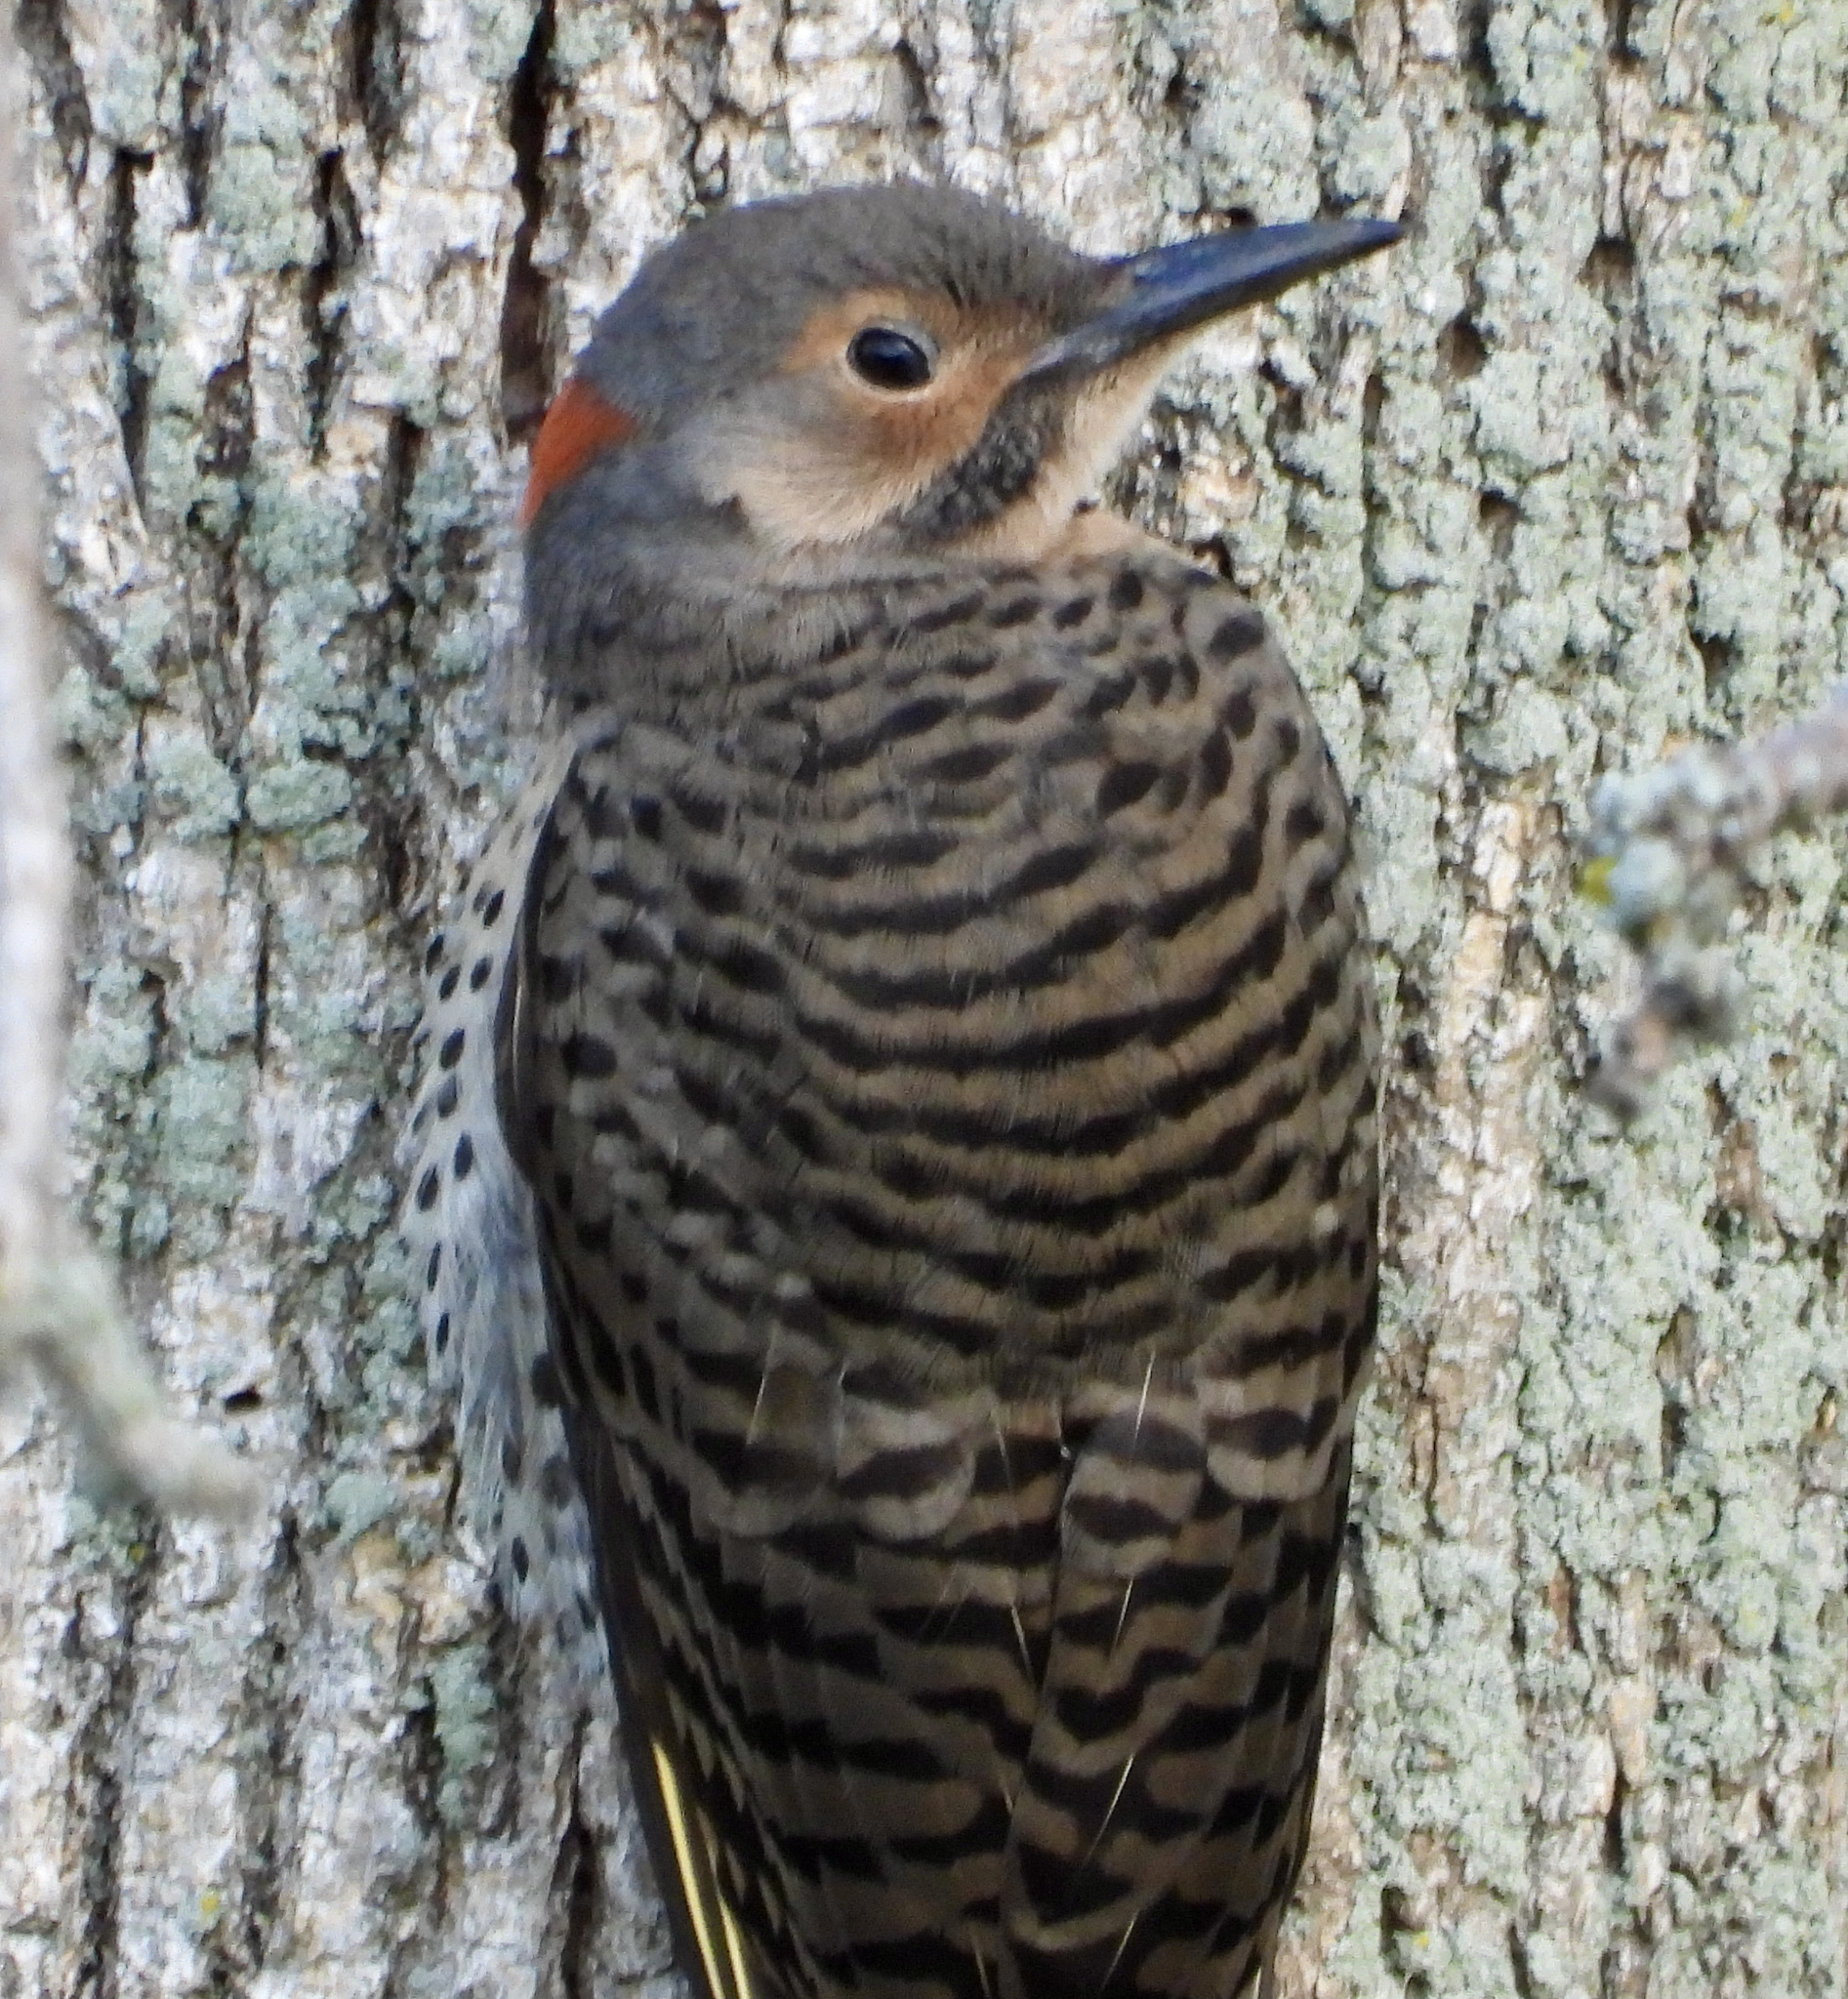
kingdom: Animalia
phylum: Chordata
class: Aves
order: Piciformes
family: Picidae
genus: Colaptes
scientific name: Colaptes auratus
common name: Northern flicker
